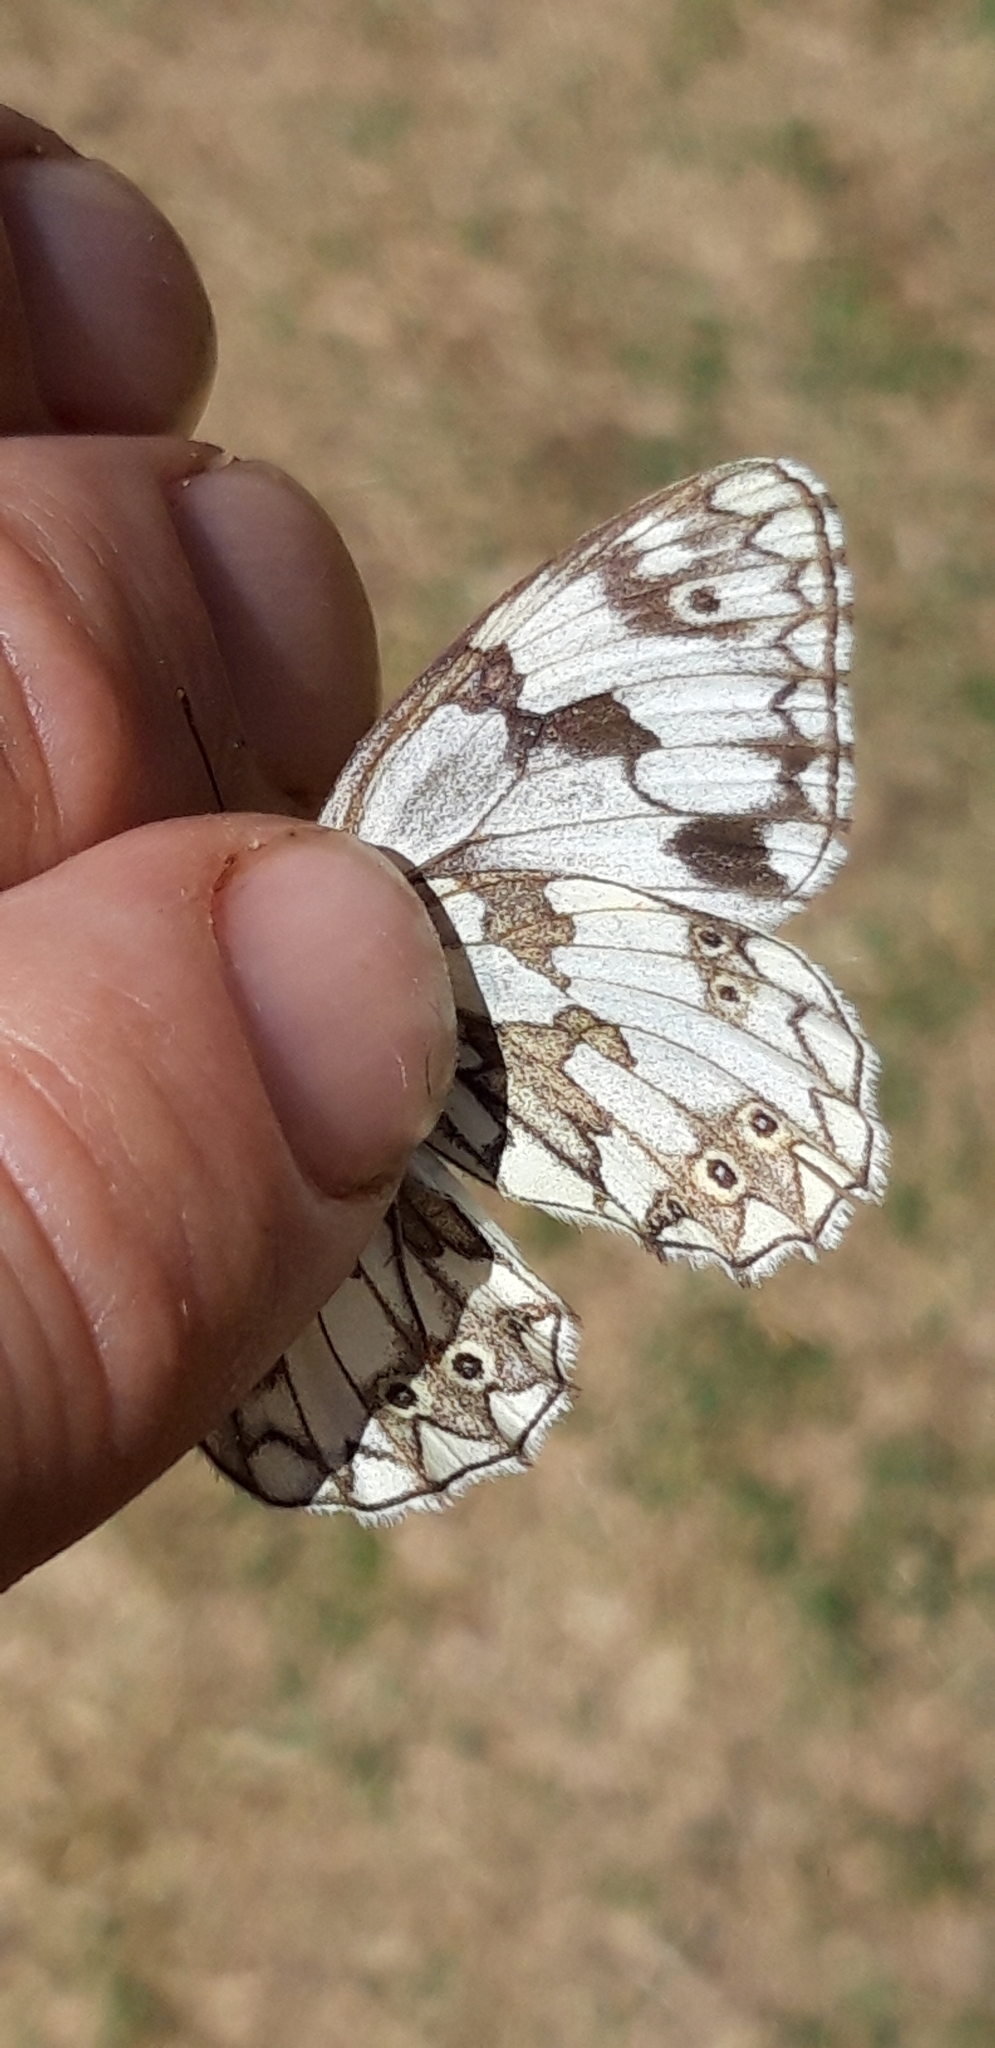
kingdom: Animalia
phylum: Arthropoda
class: Insecta
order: Lepidoptera
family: Nymphalidae
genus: Melanargia
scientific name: Melanargia lachesis
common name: Iberian marbled white
